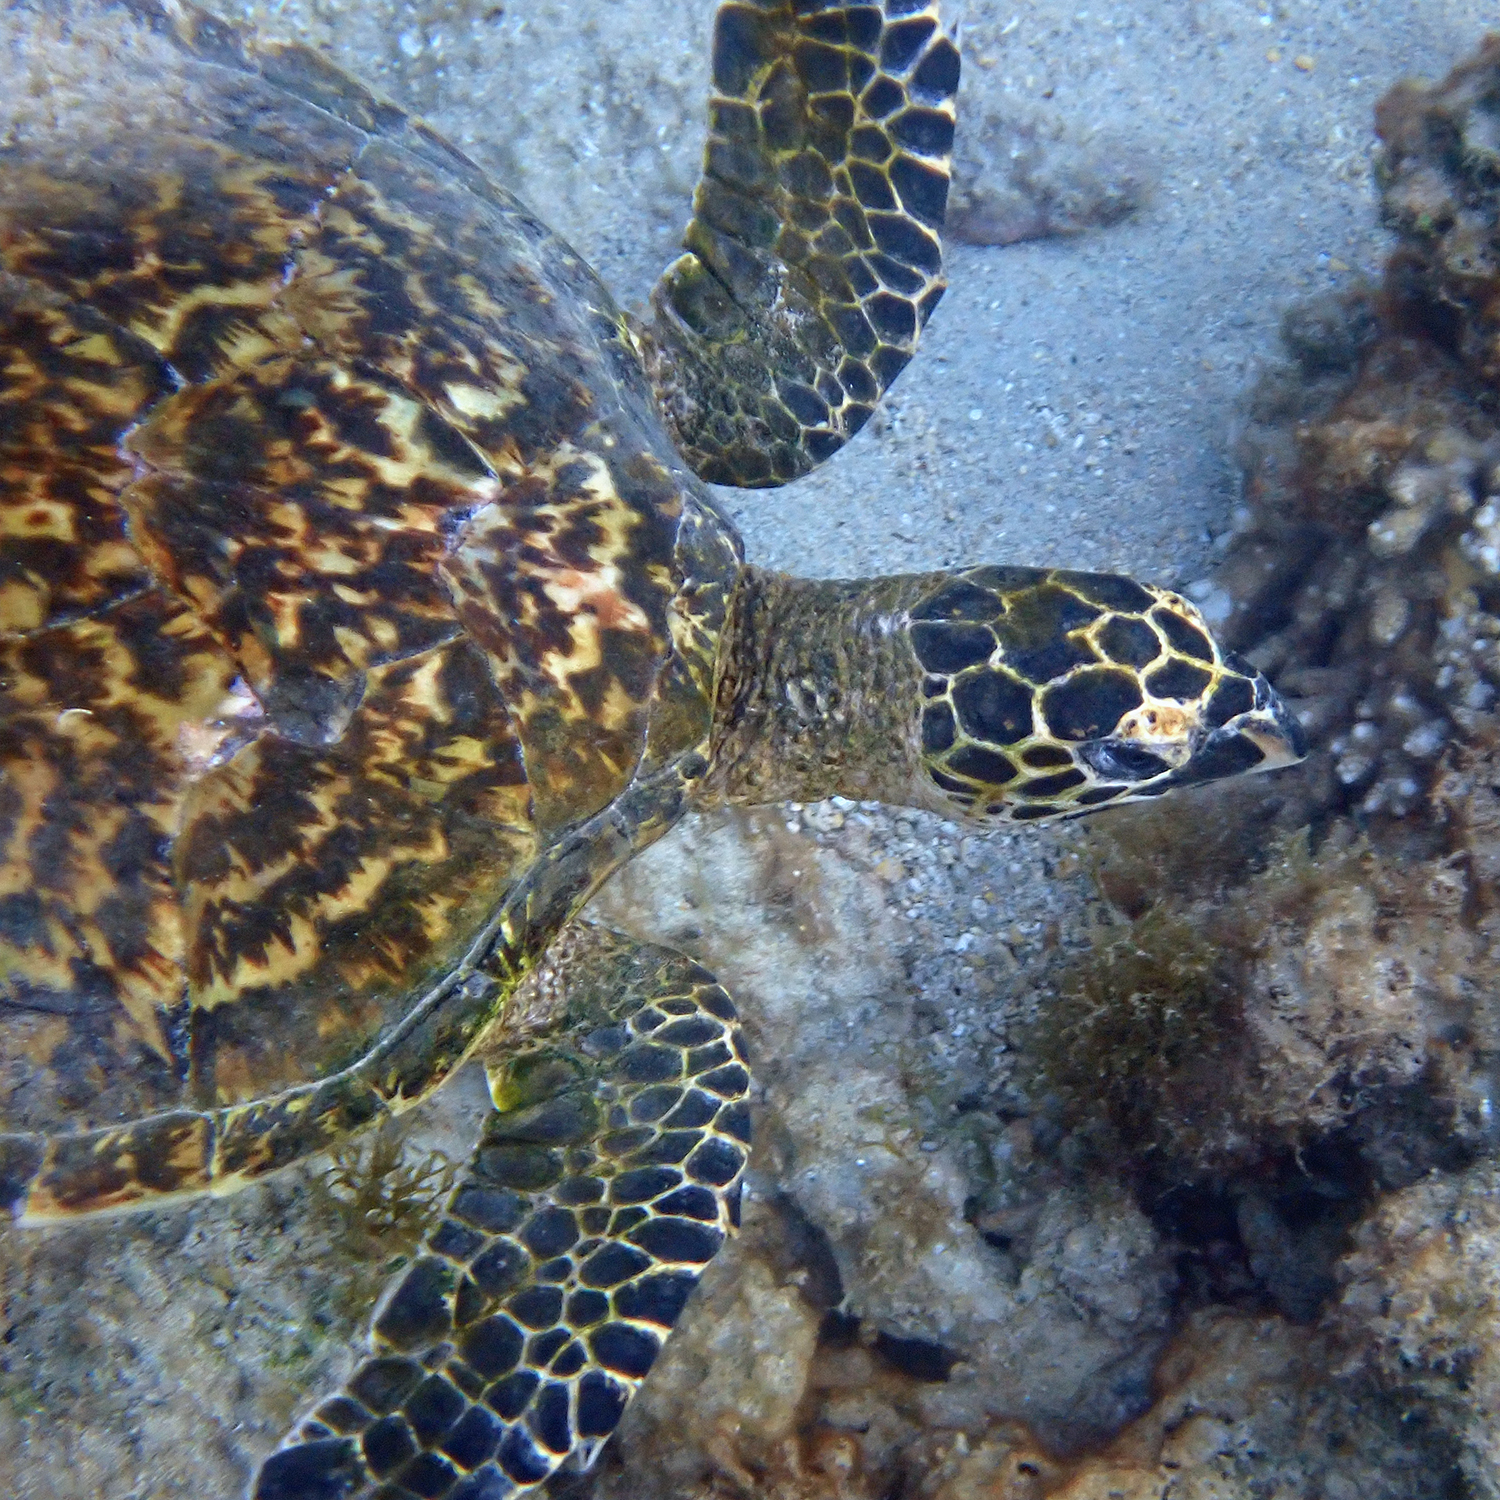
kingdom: Animalia
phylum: Chordata
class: Testudines
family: Cheloniidae
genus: Eretmochelys
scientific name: Eretmochelys imbricata
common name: Hawksbill turtle
